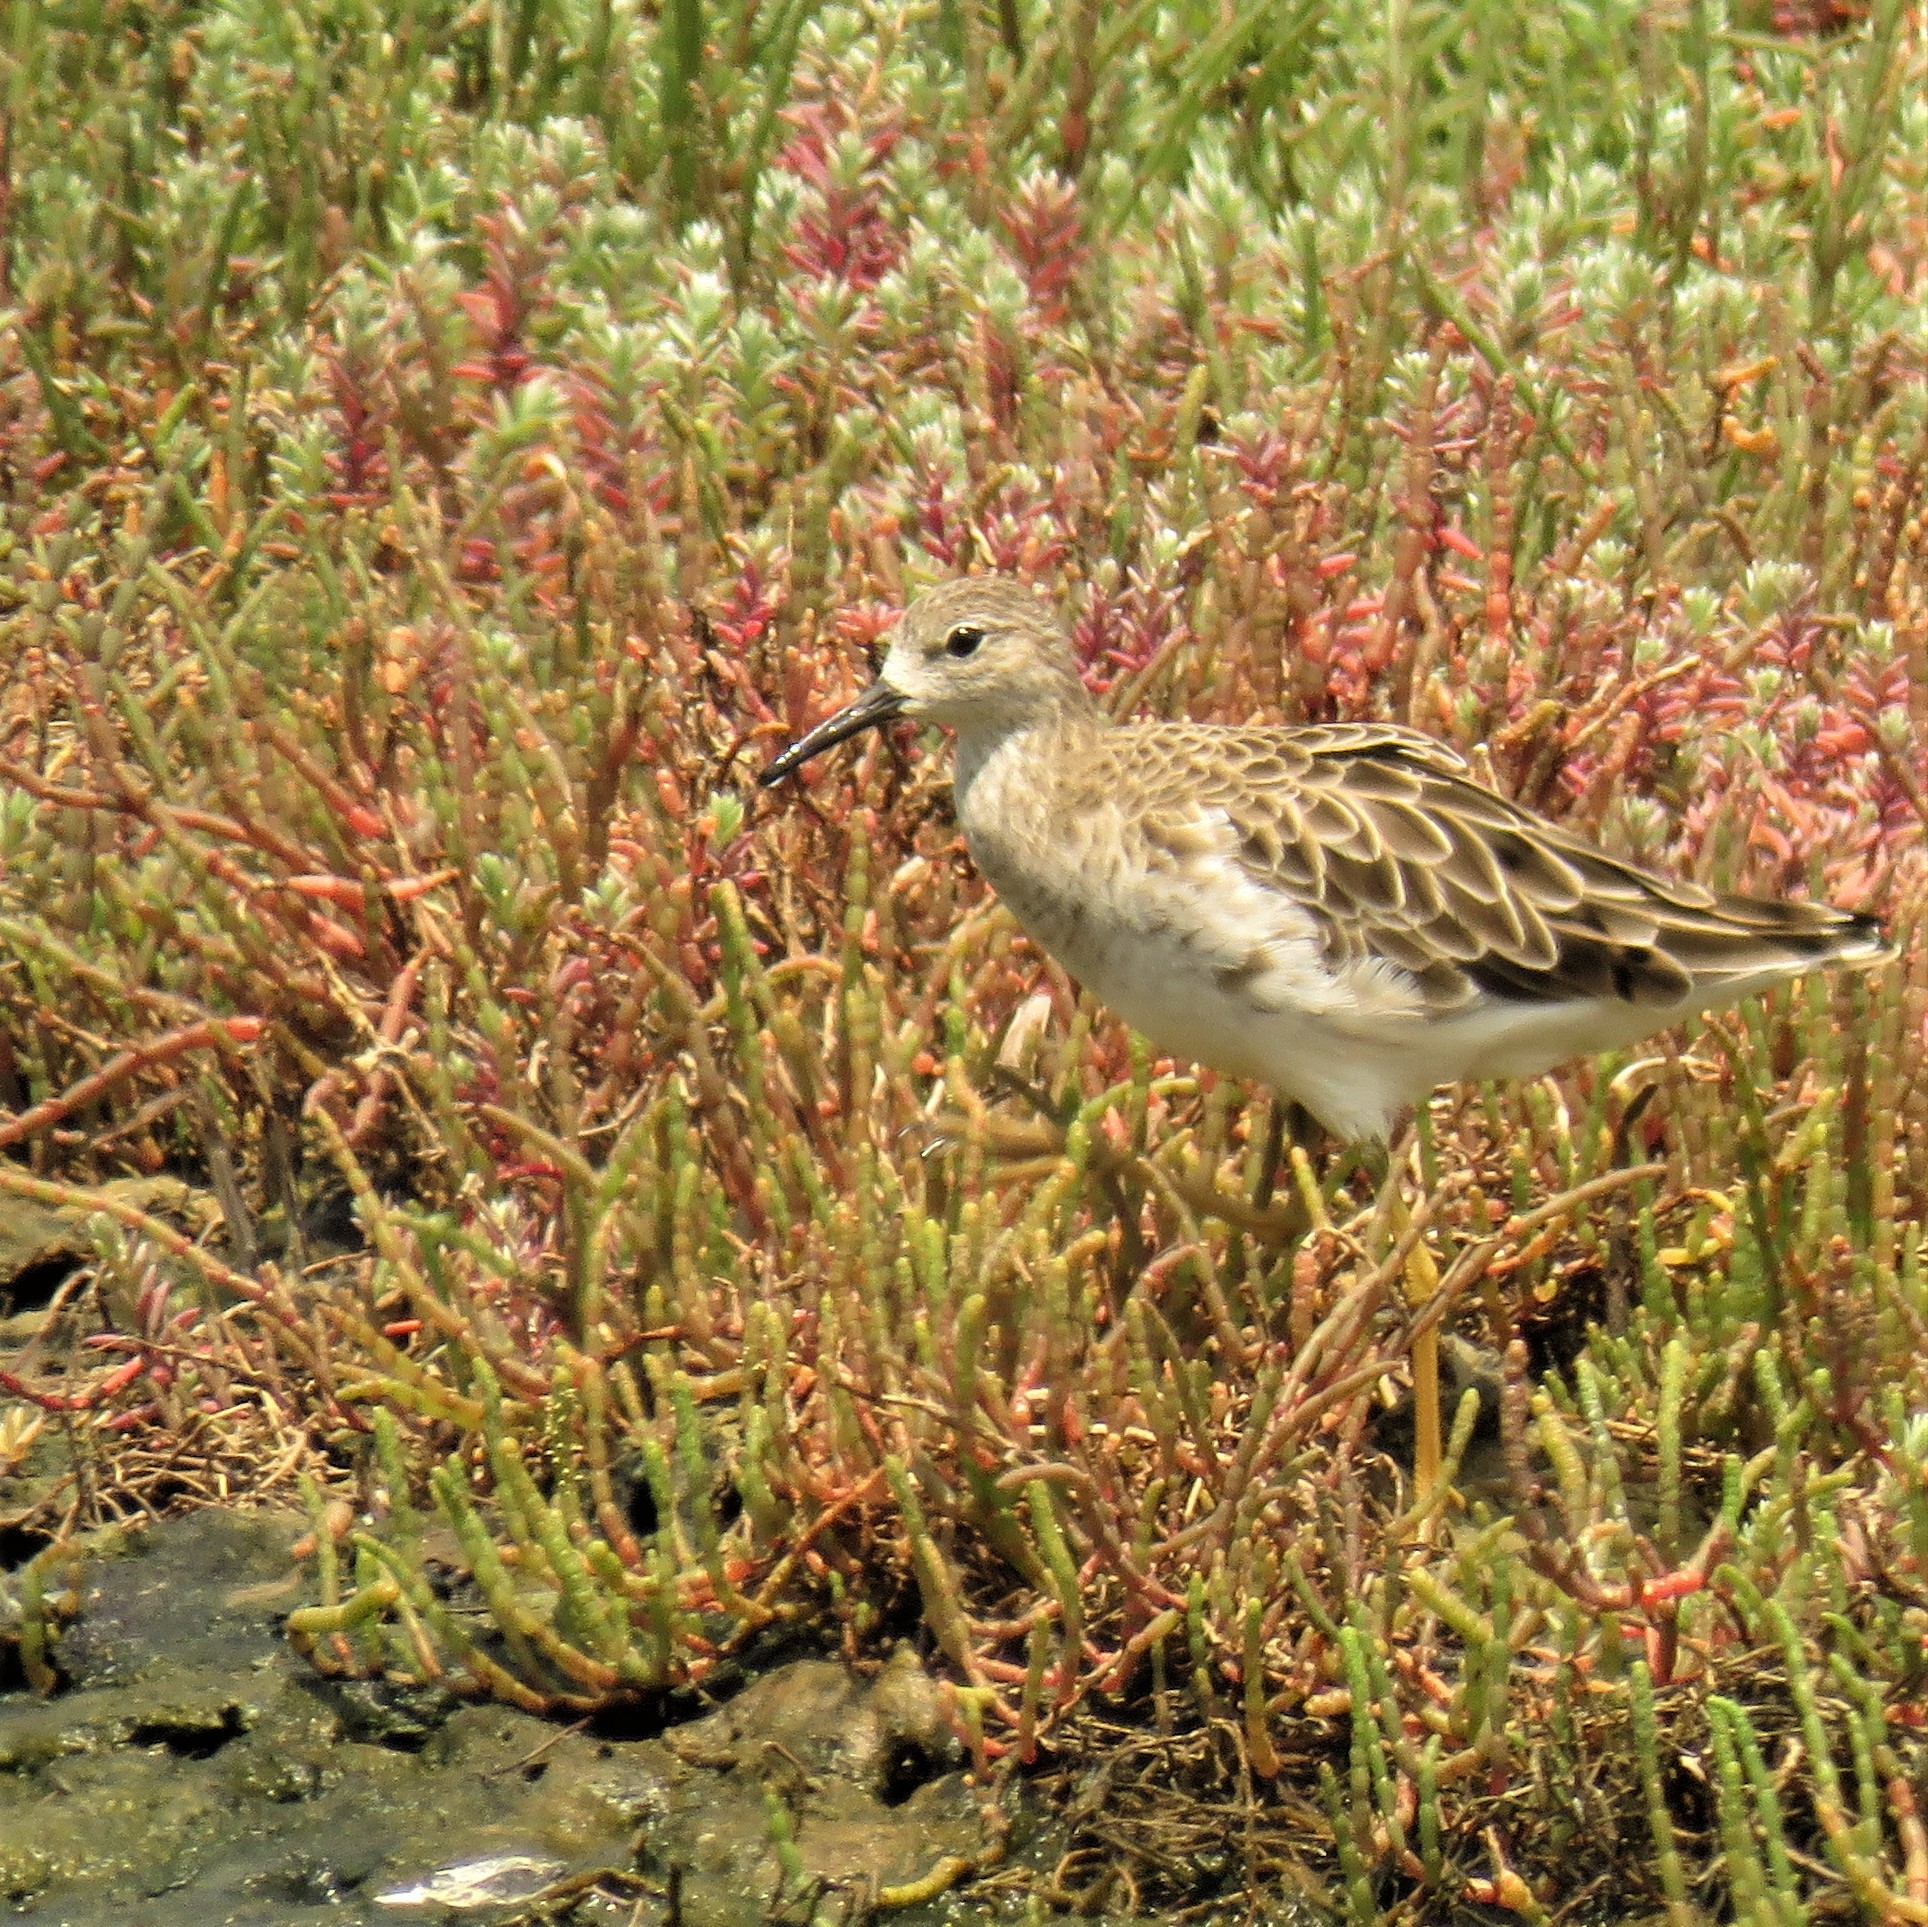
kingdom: Animalia
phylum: Chordata
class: Aves
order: Charadriiformes
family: Scolopacidae
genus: Calidris
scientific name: Calidris pugnax
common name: Ruff
